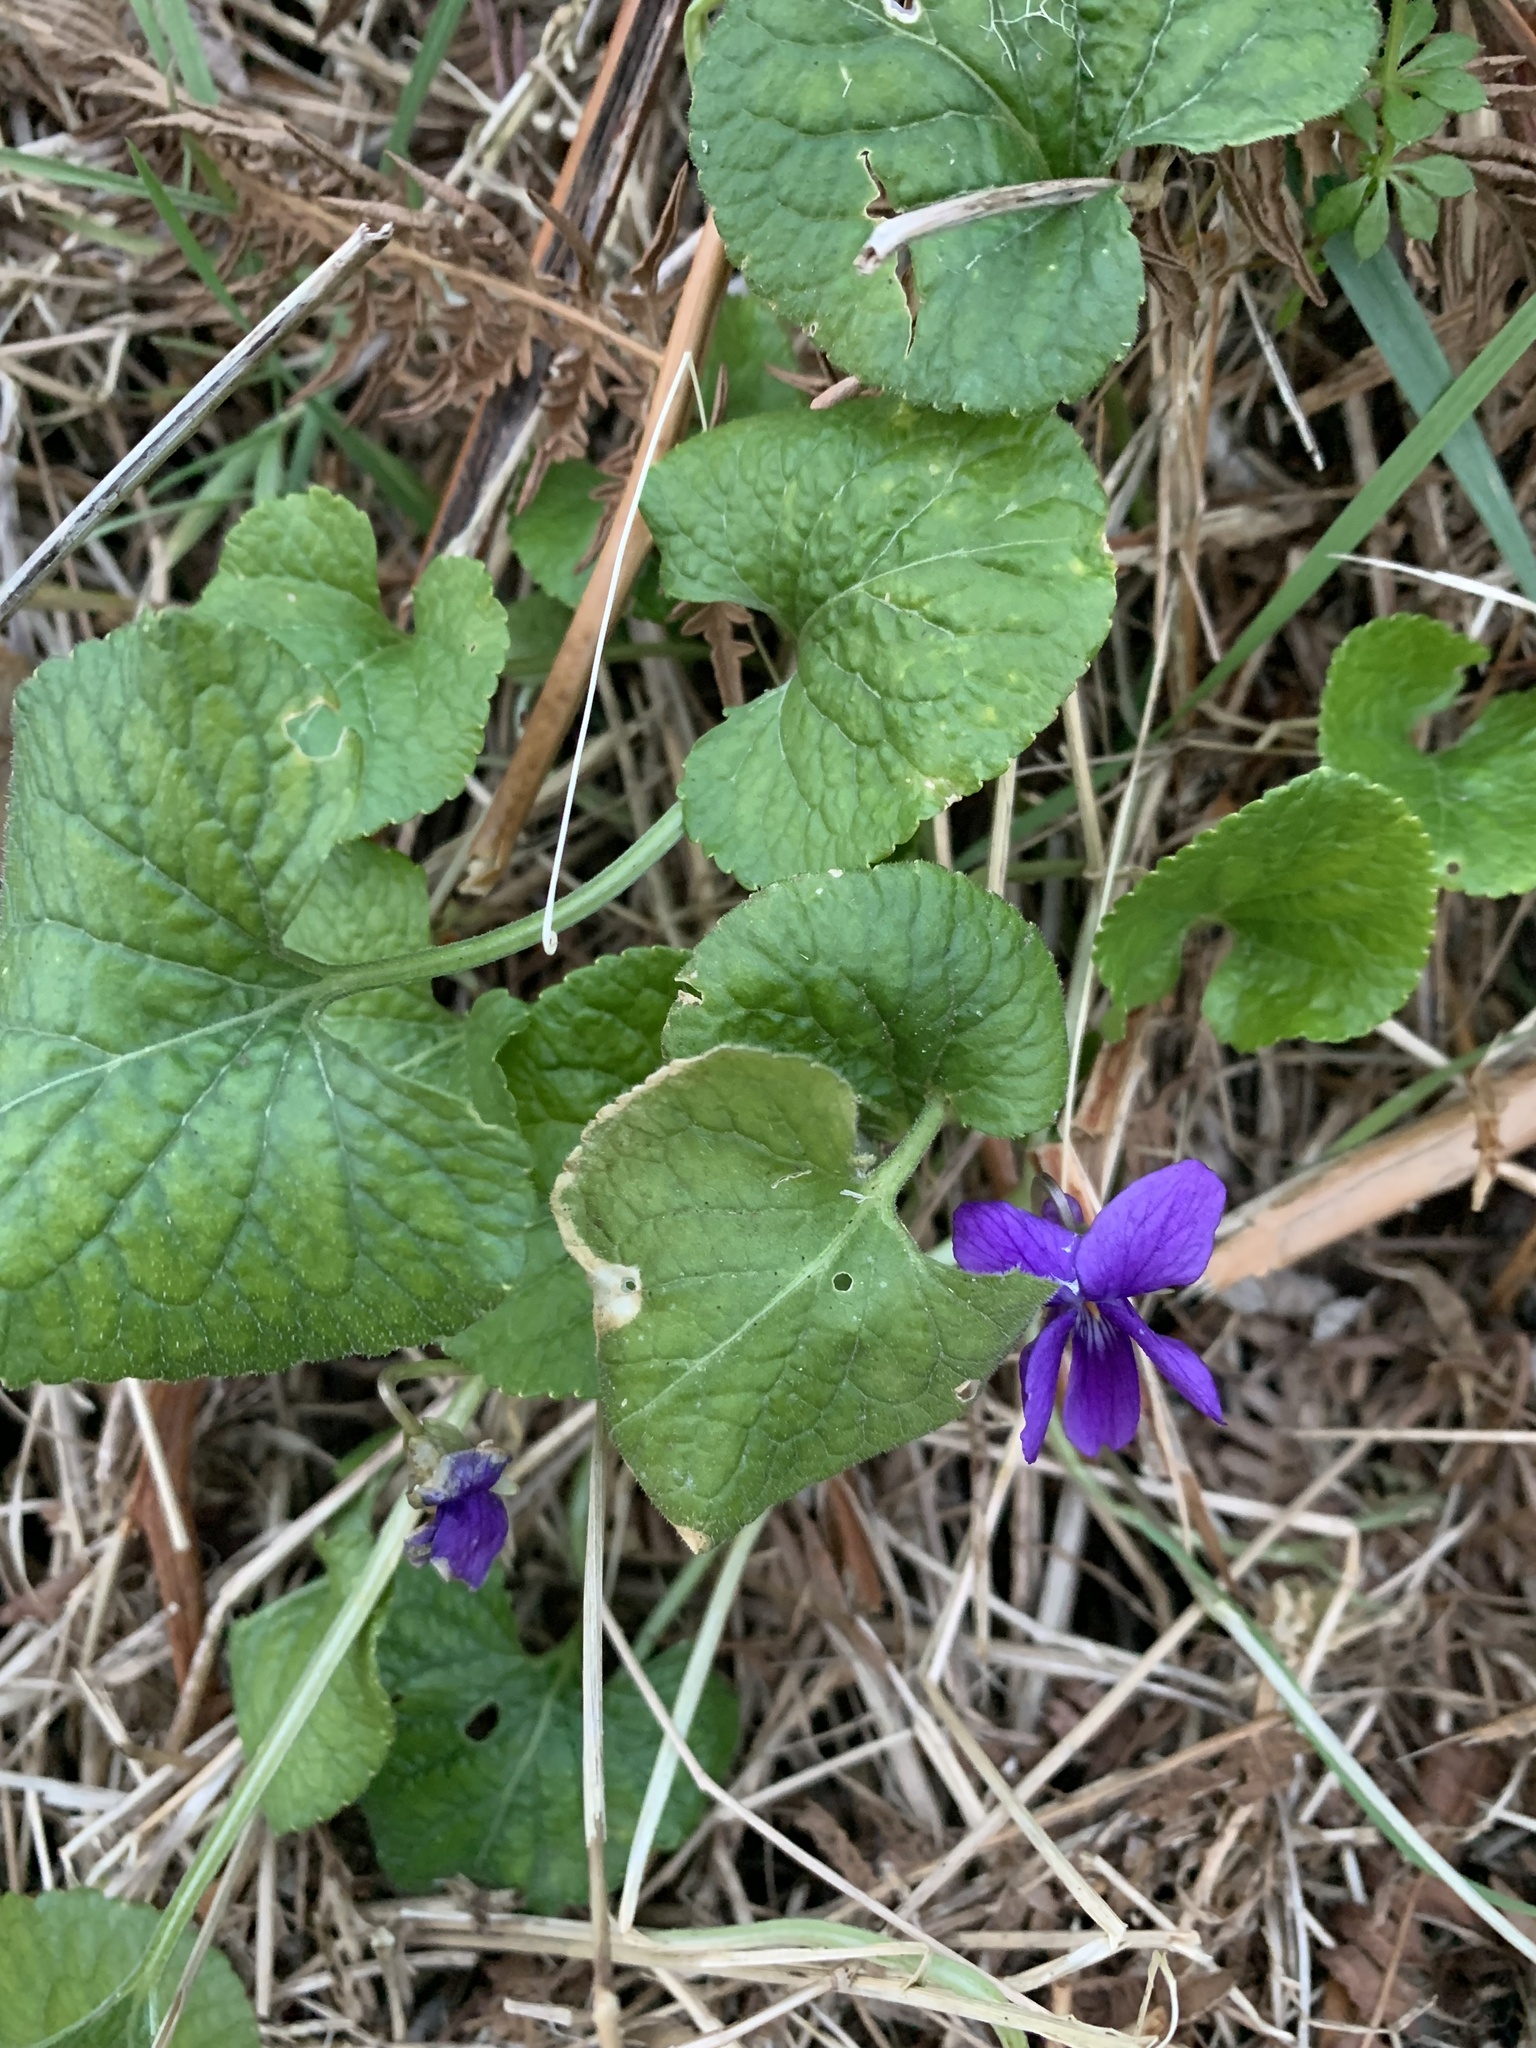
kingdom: Plantae
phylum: Tracheophyta
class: Magnoliopsida
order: Malpighiales
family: Violaceae
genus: Viola
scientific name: Viola odorata
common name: Sweet violet
